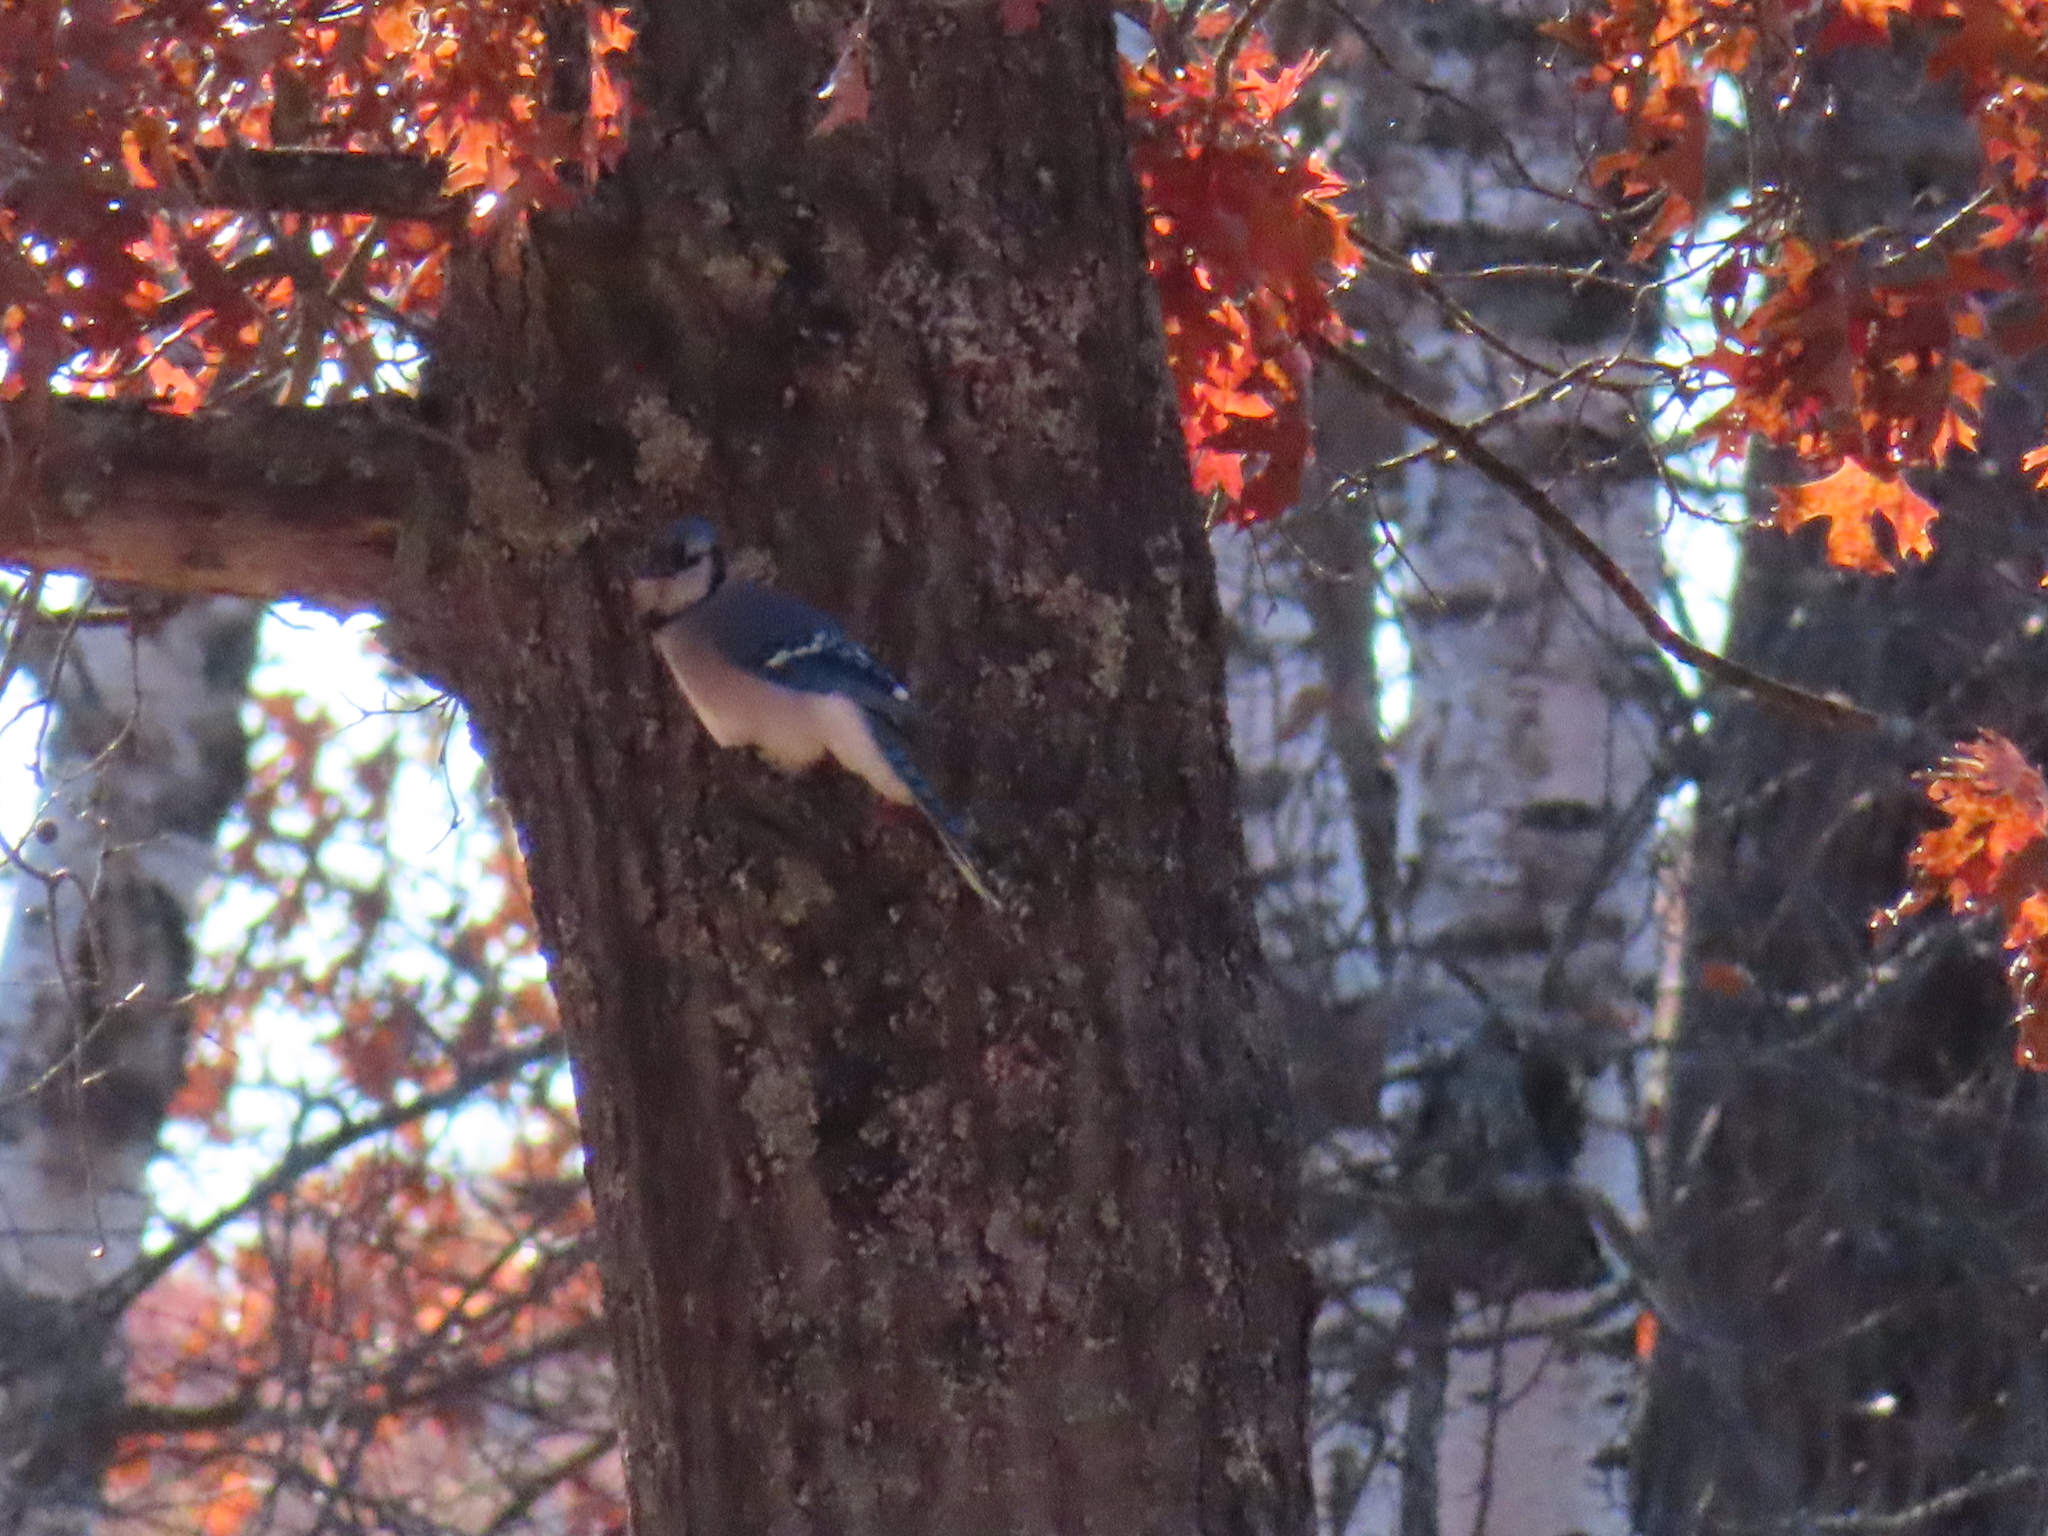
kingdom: Animalia
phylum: Chordata
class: Aves
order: Passeriformes
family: Corvidae
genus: Cyanocitta
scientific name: Cyanocitta cristata
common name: Blue jay
